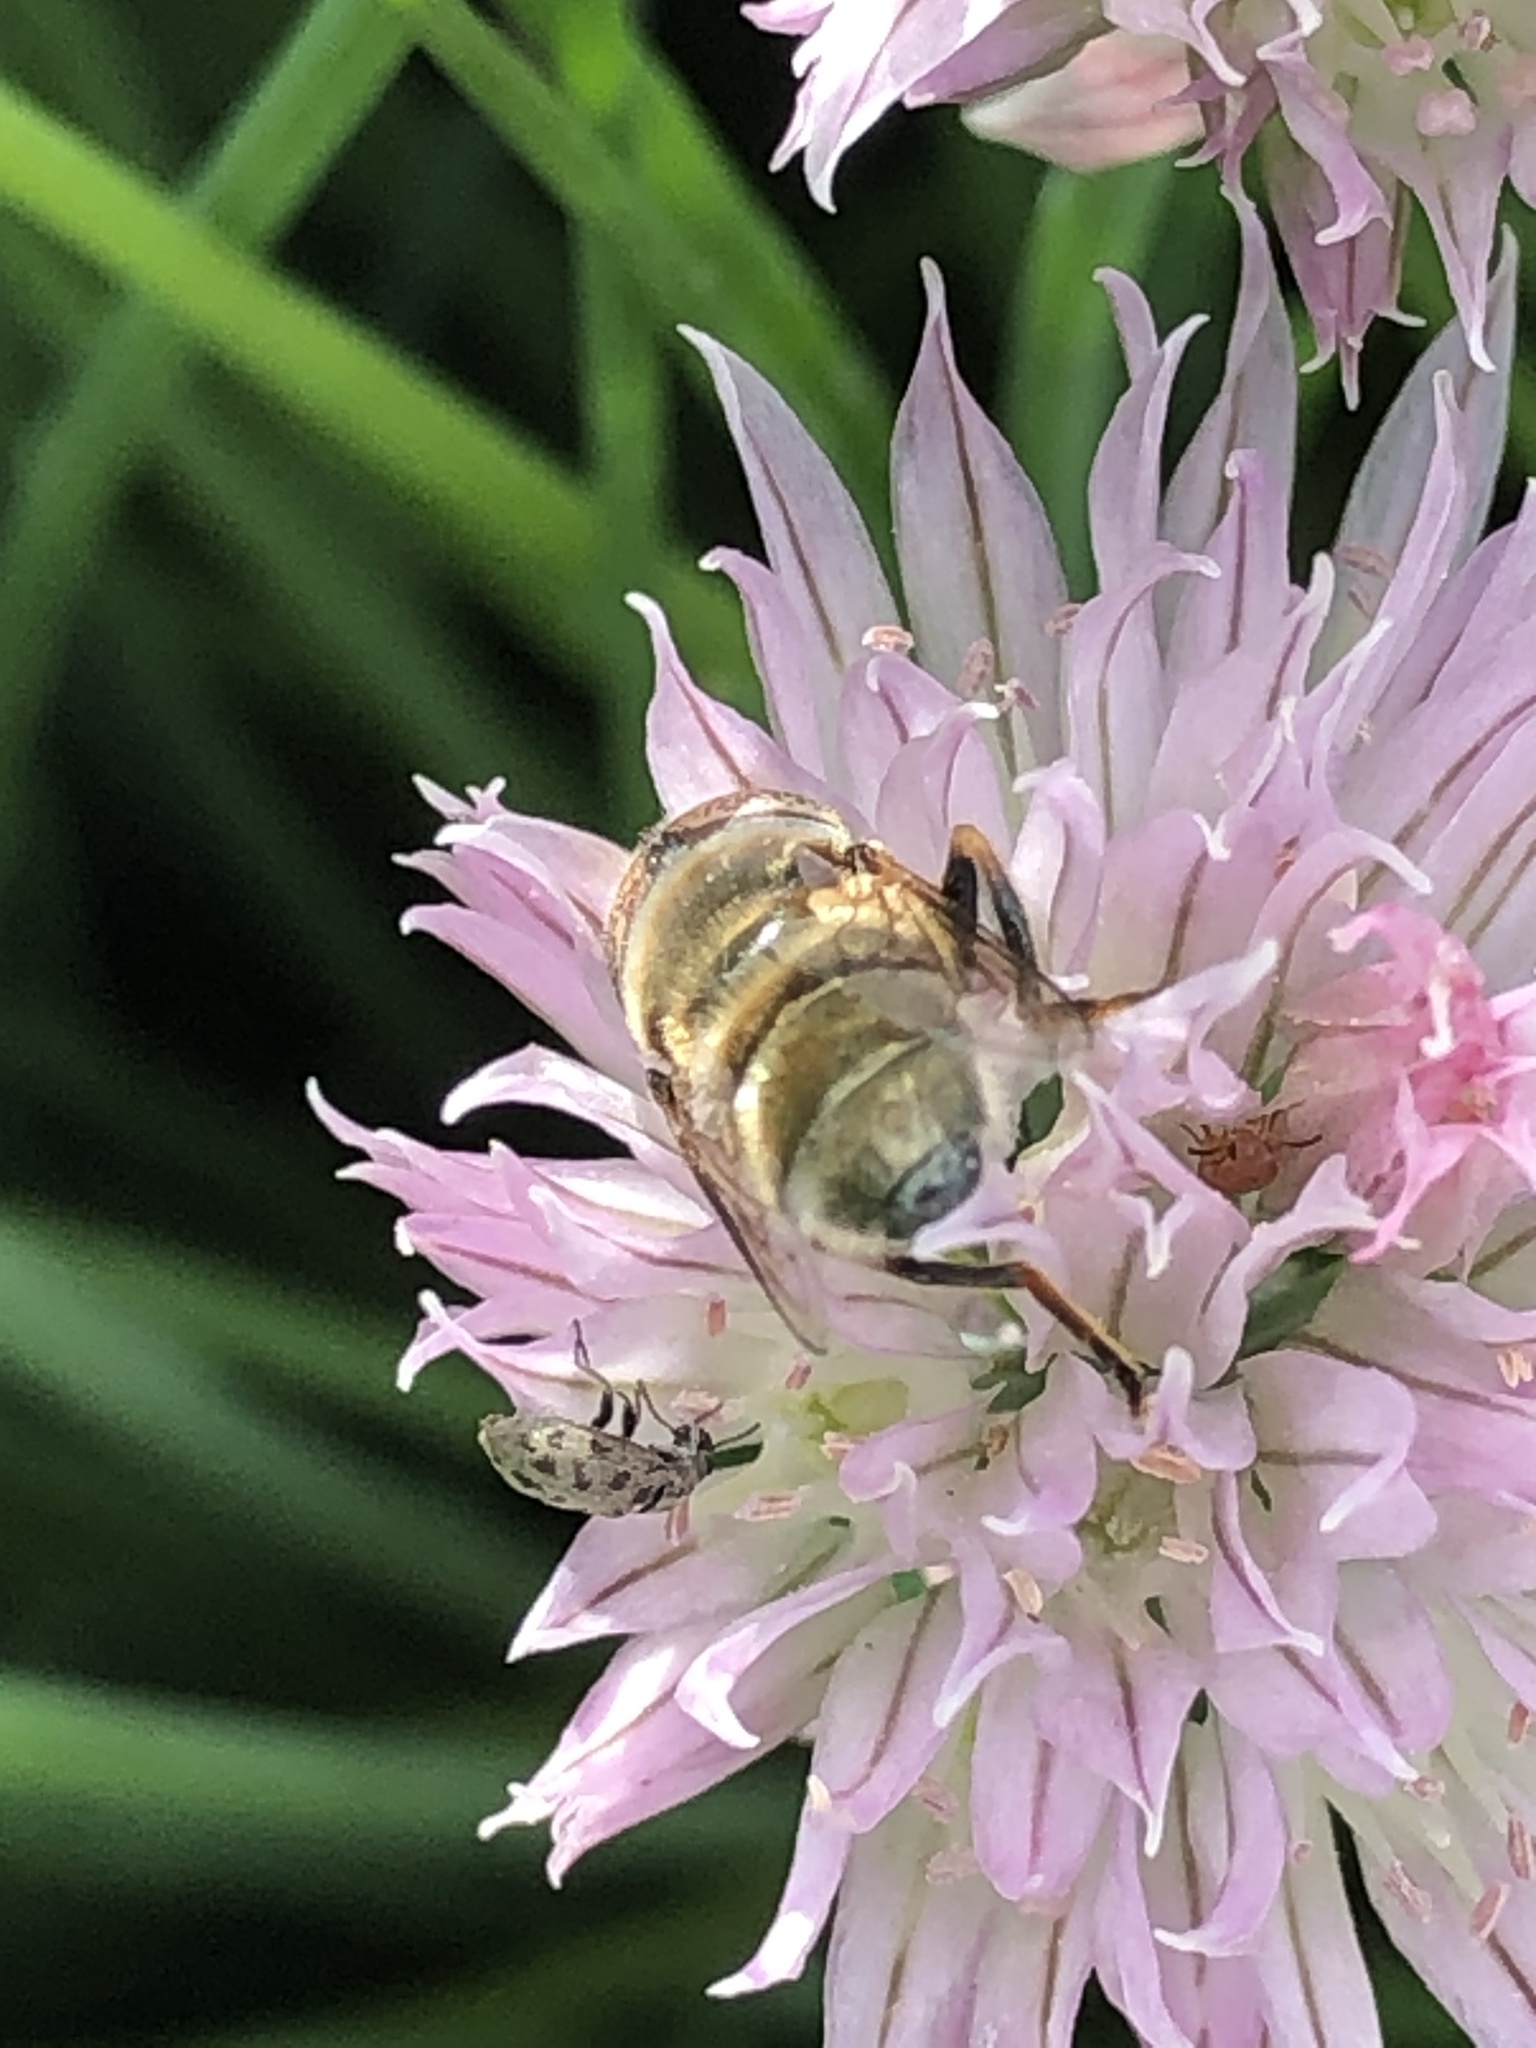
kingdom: Animalia
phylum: Arthropoda
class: Insecta
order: Diptera
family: Syrphidae
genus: Eristalinus
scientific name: Eristalinus aeneus
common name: Syrphid fly
